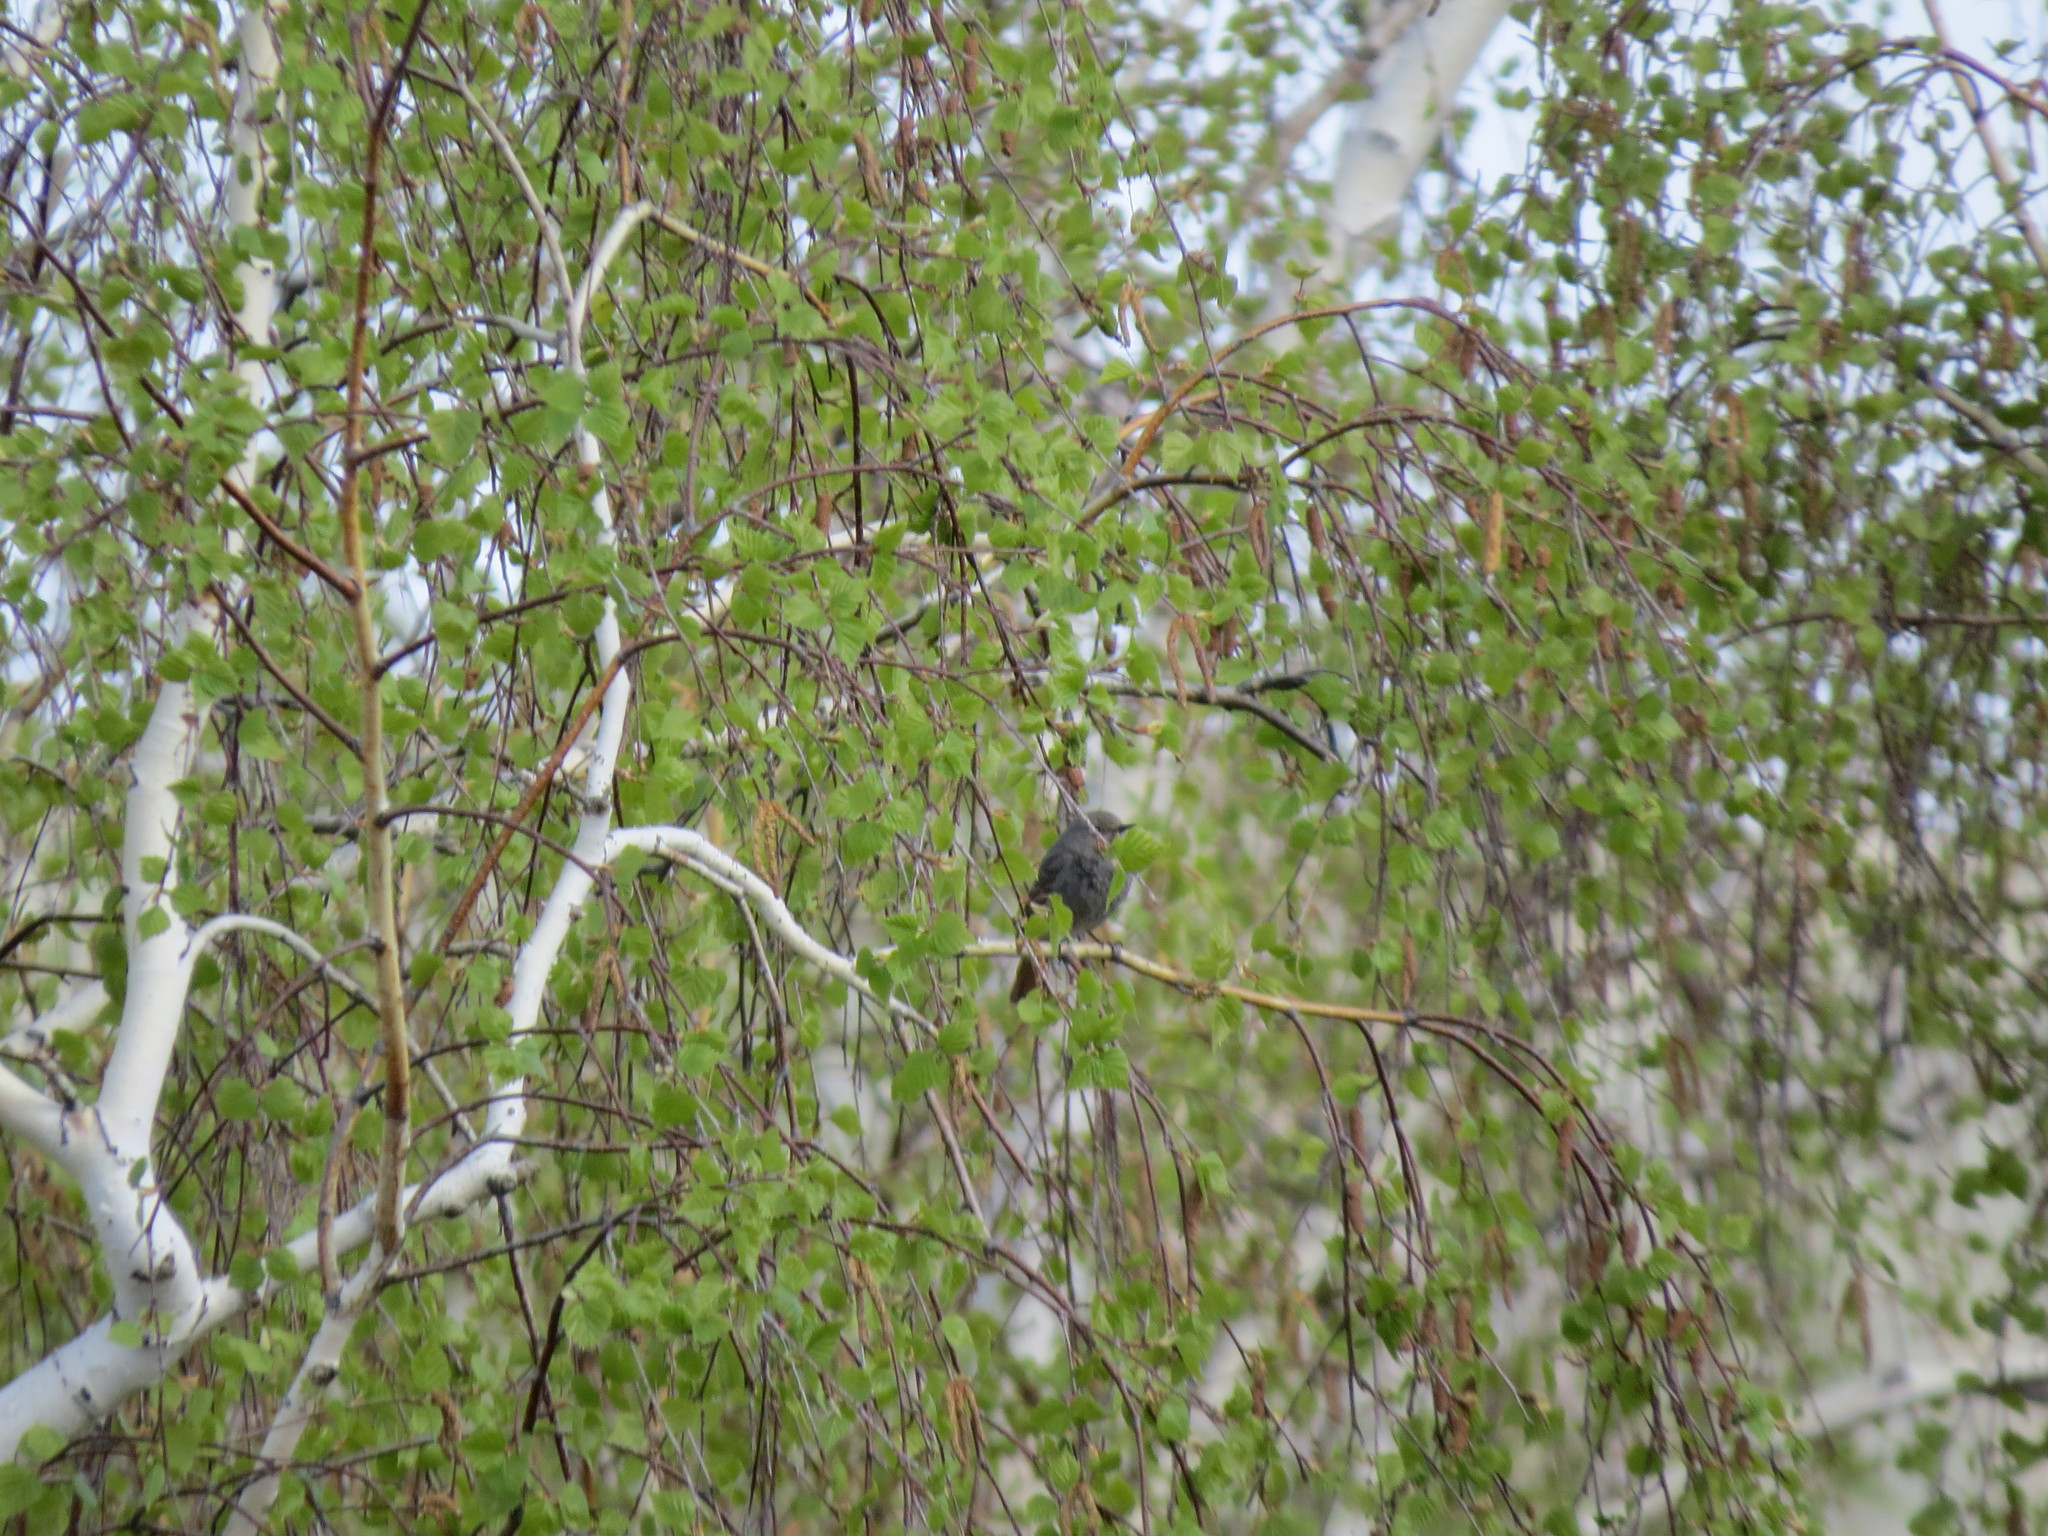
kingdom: Animalia
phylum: Chordata
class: Aves
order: Passeriformes
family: Muscicapidae
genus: Phoenicurus
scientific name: Phoenicurus ochruros
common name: Black redstart
